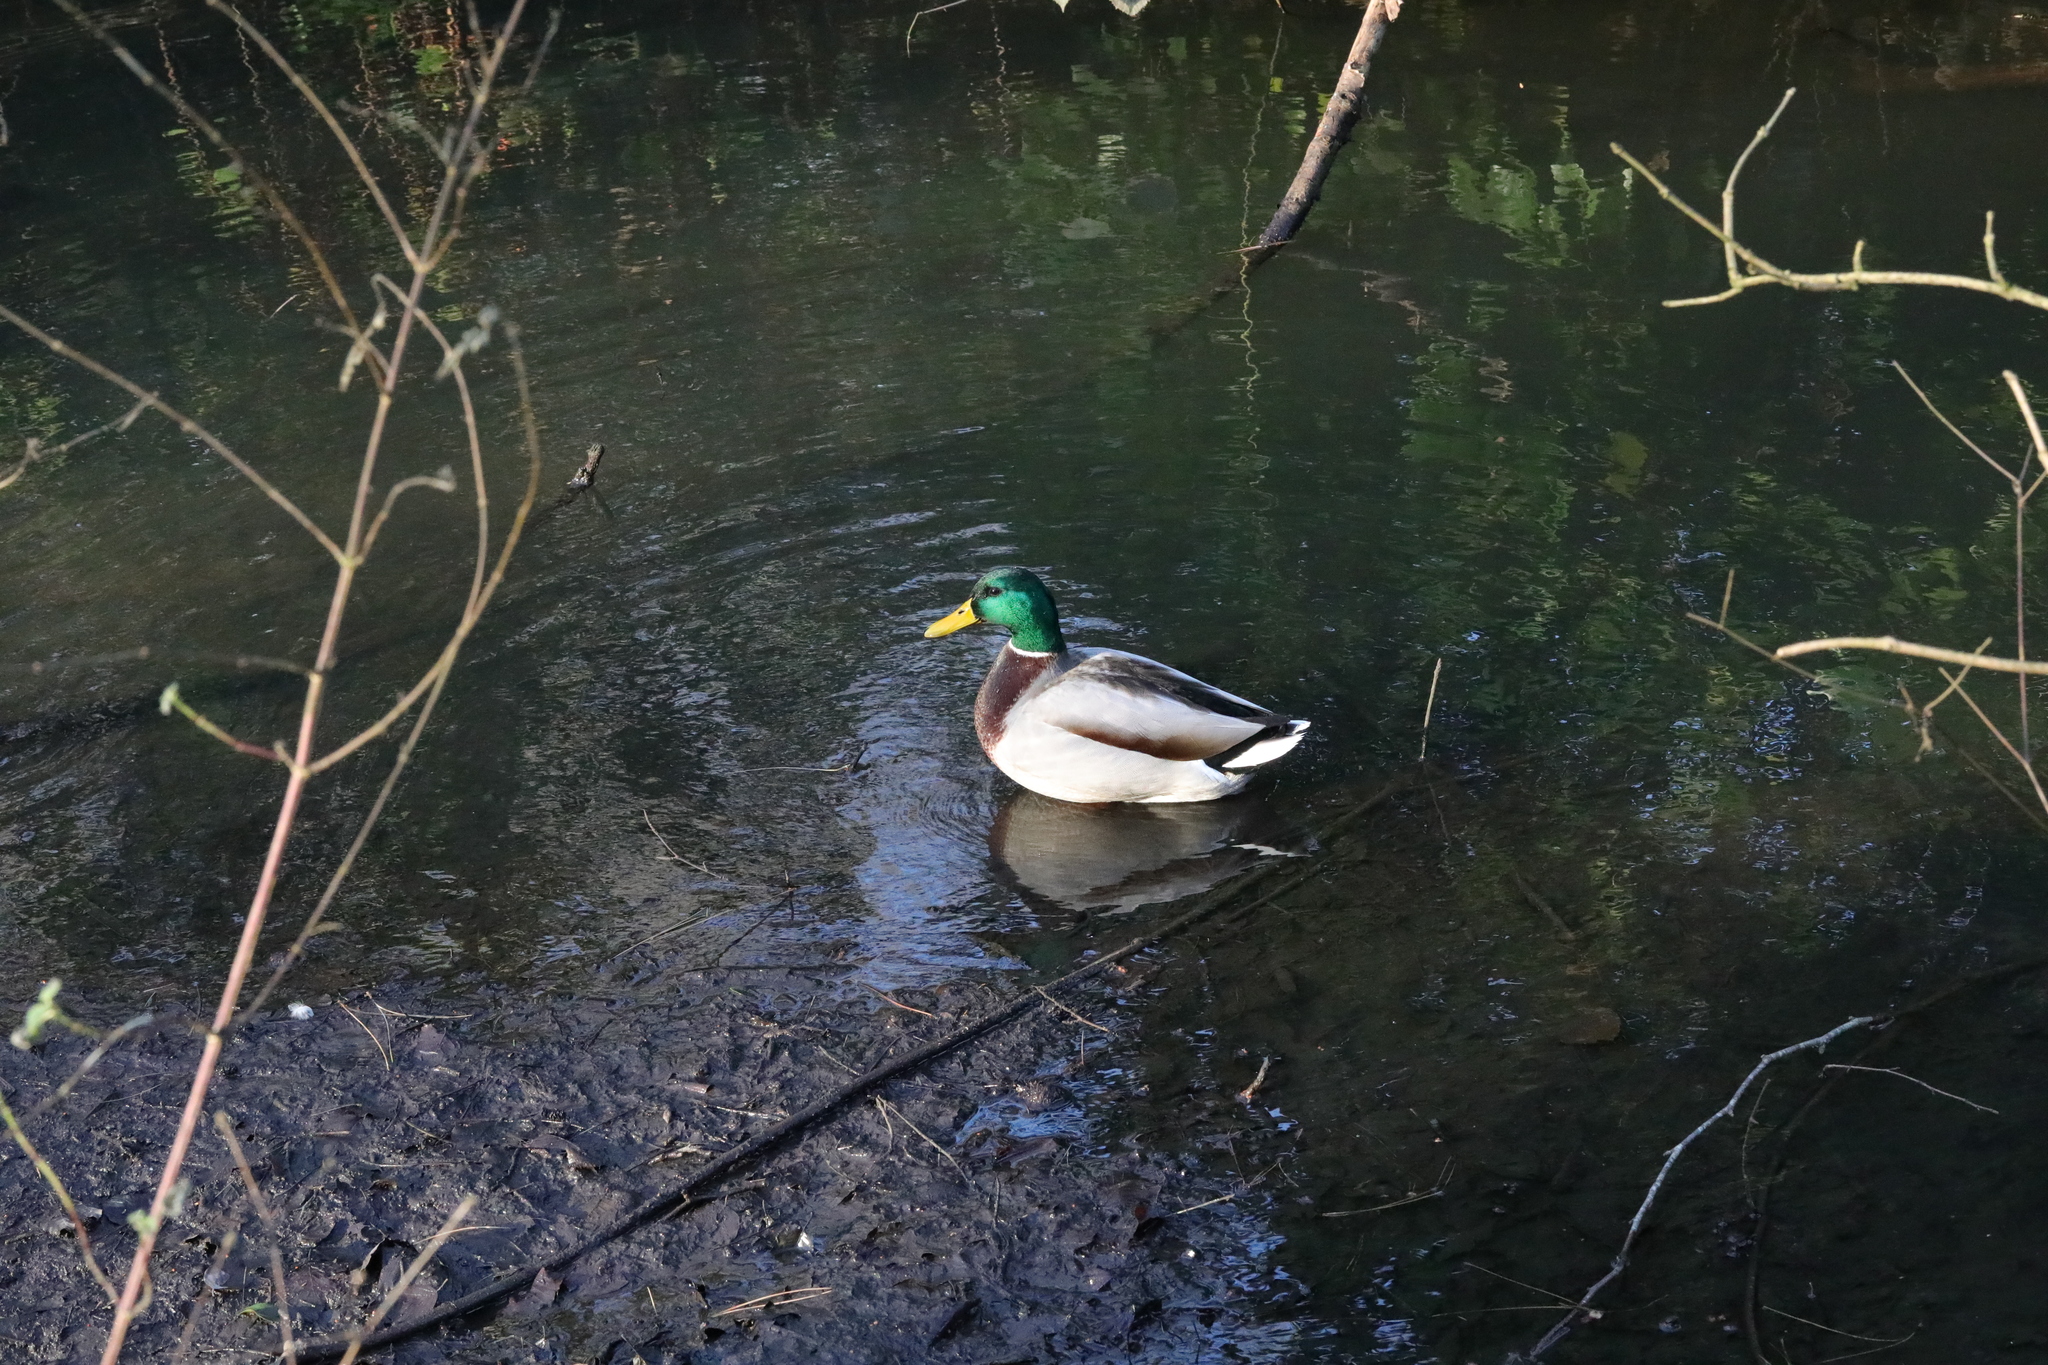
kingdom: Animalia
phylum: Chordata
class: Aves
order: Anseriformes
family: Anatidae
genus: Anas
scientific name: Anas platyrhynchos
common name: Mallard
